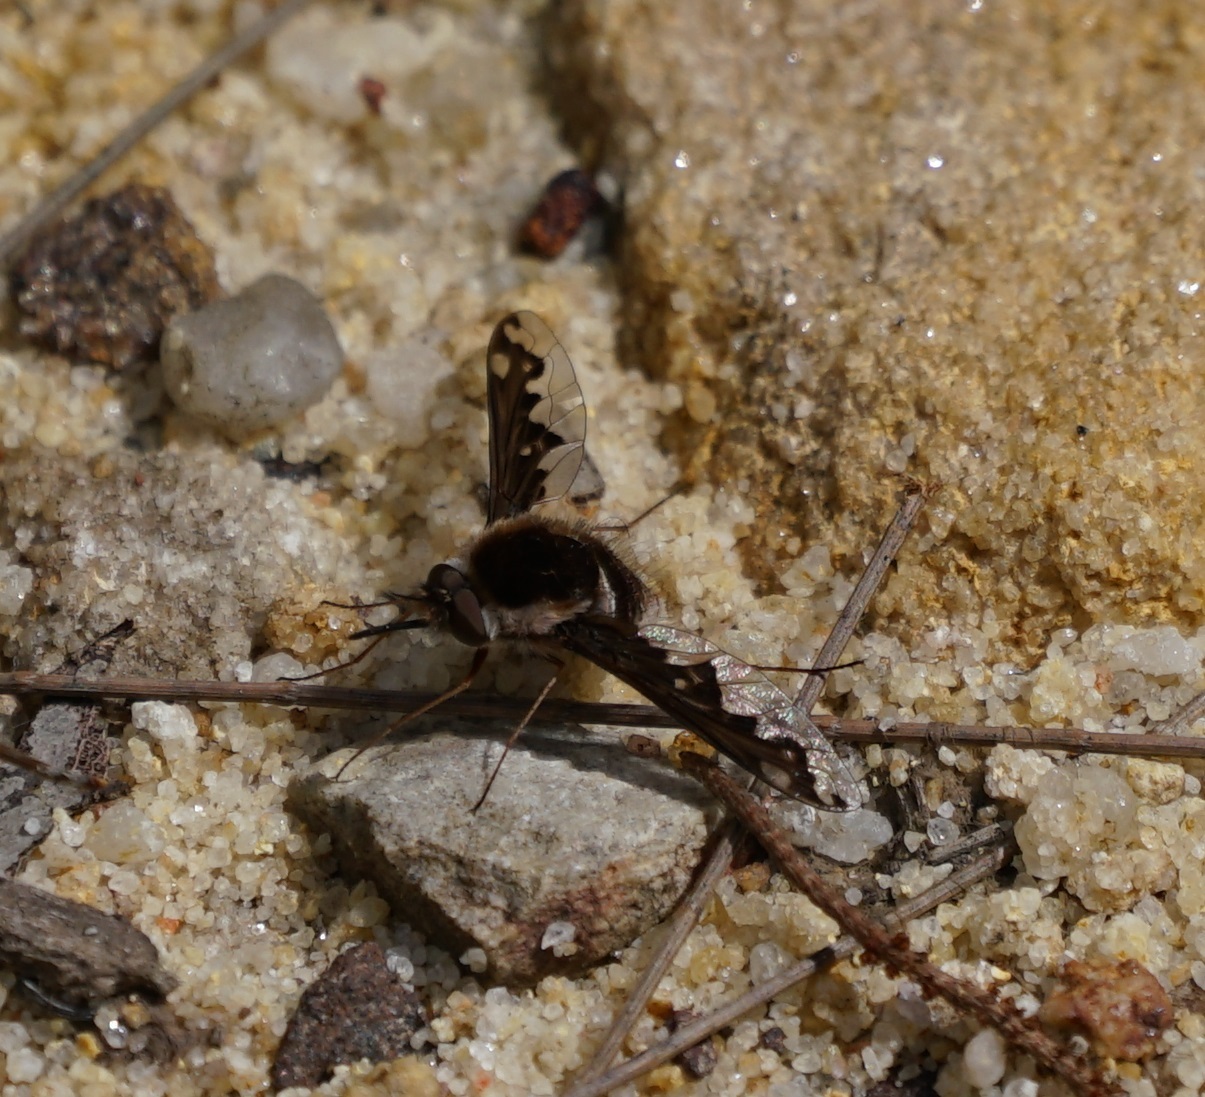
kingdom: Animalia
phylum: Arthropoda
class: Insecta
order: Diptera
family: Bombyliidae
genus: Staurostichus
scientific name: Staurostichus hilare
